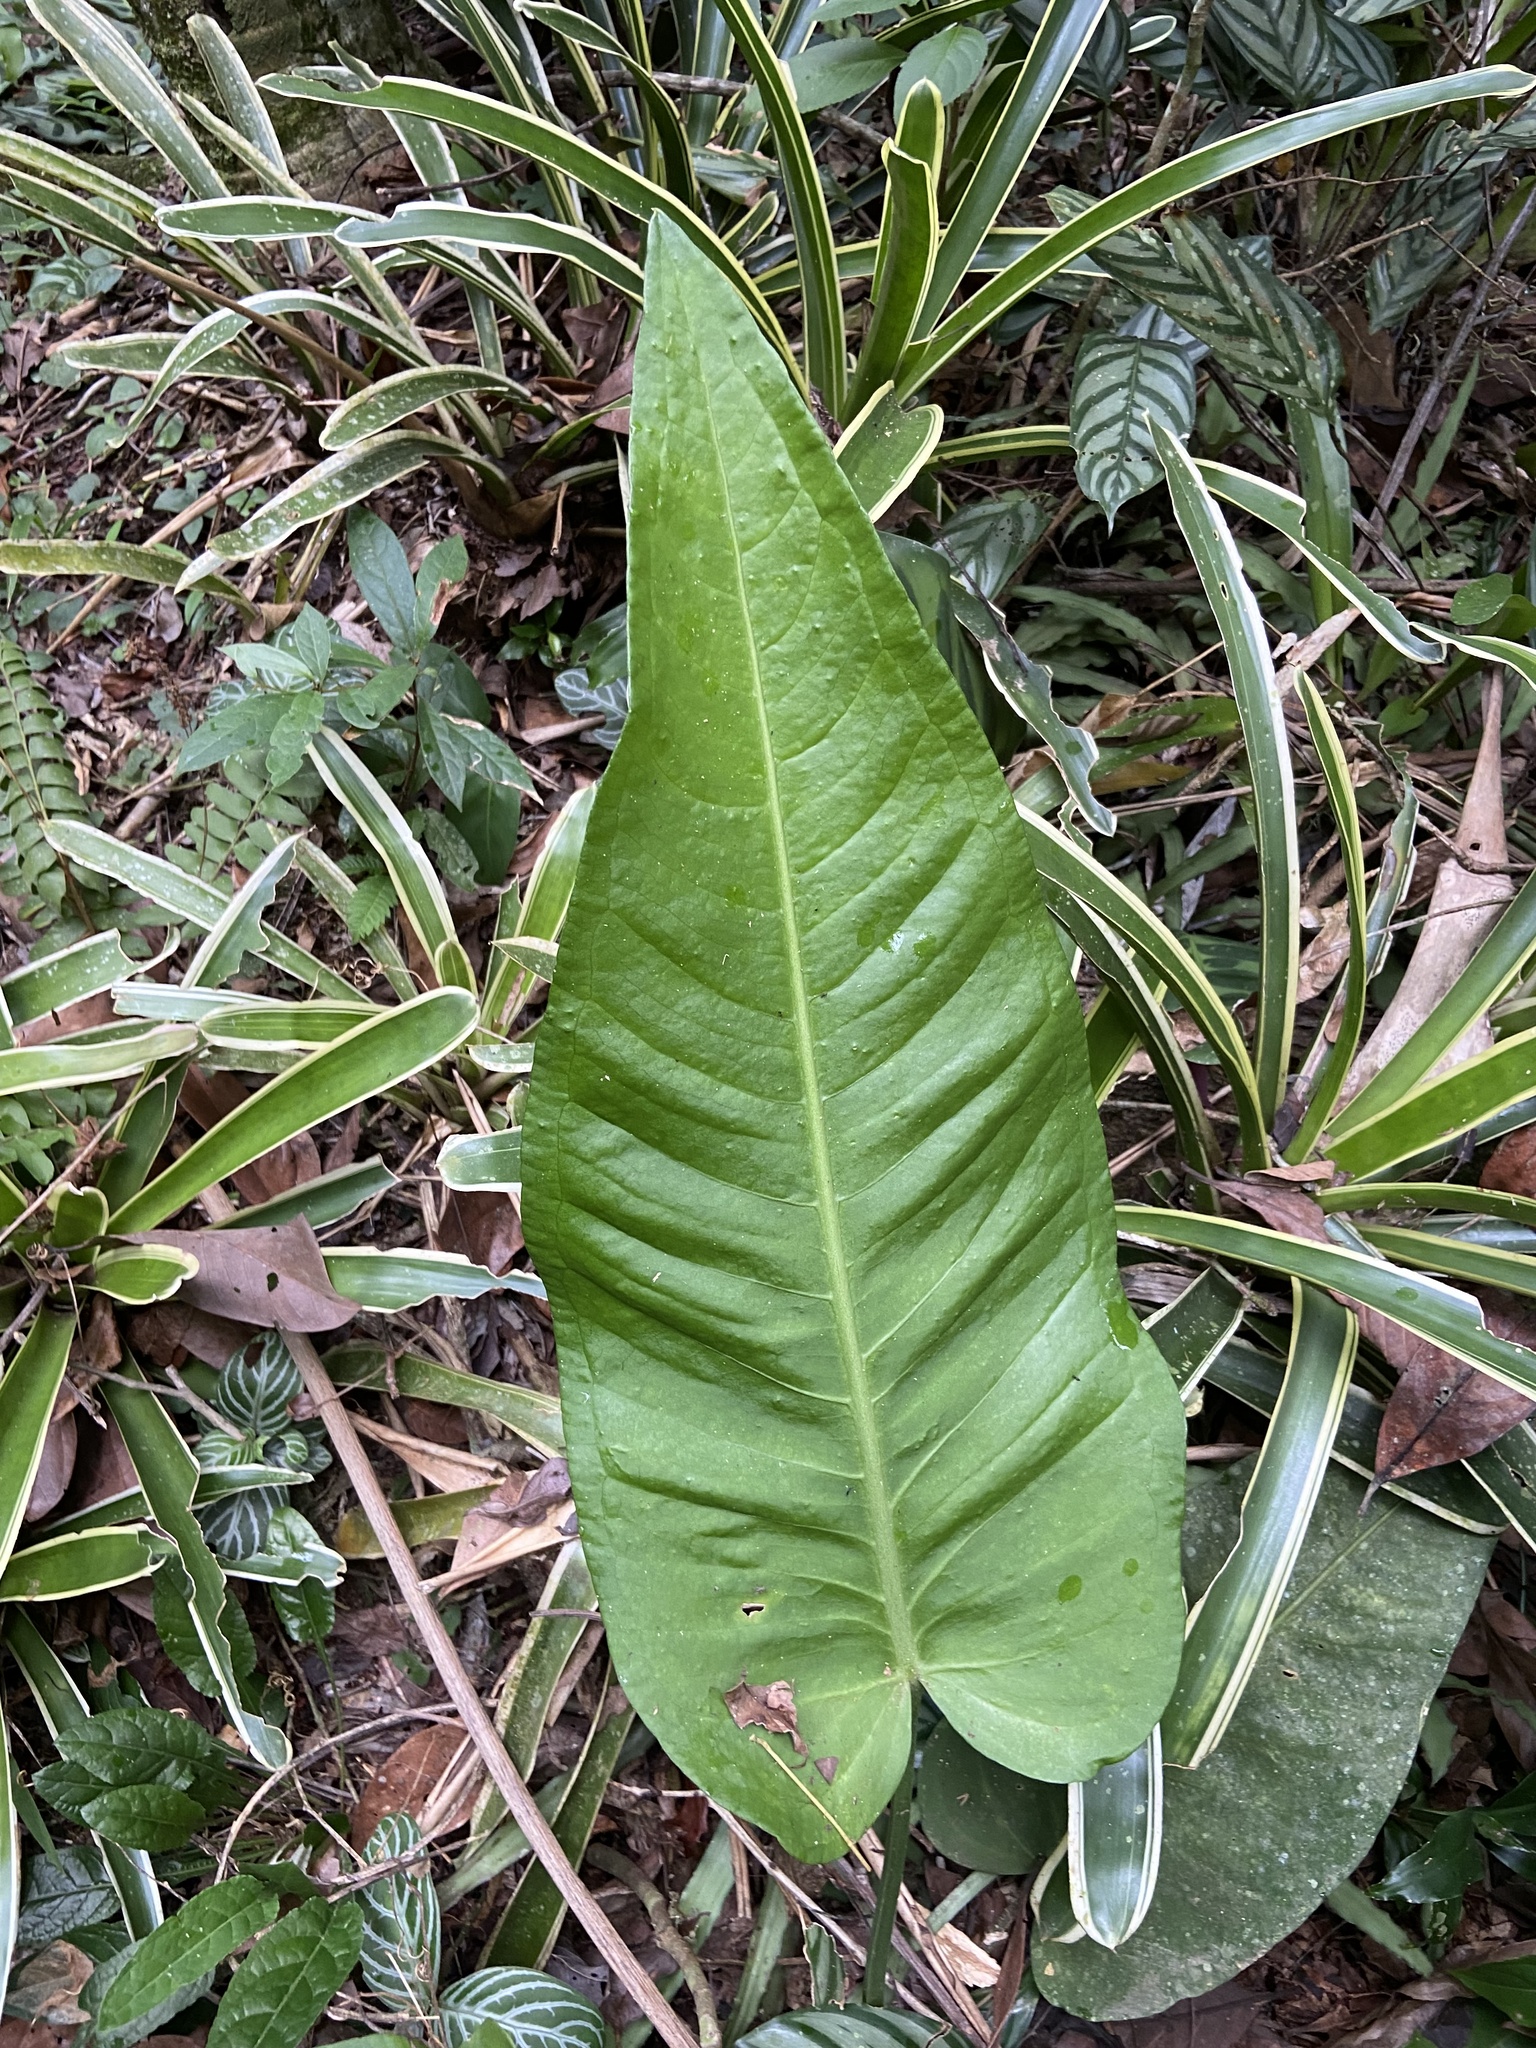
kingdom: Plantae
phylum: Tracheophyta
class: Liliopsida
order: Alismatales
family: Araceae
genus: Anthurium
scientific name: Anthurium xanthophylloides
